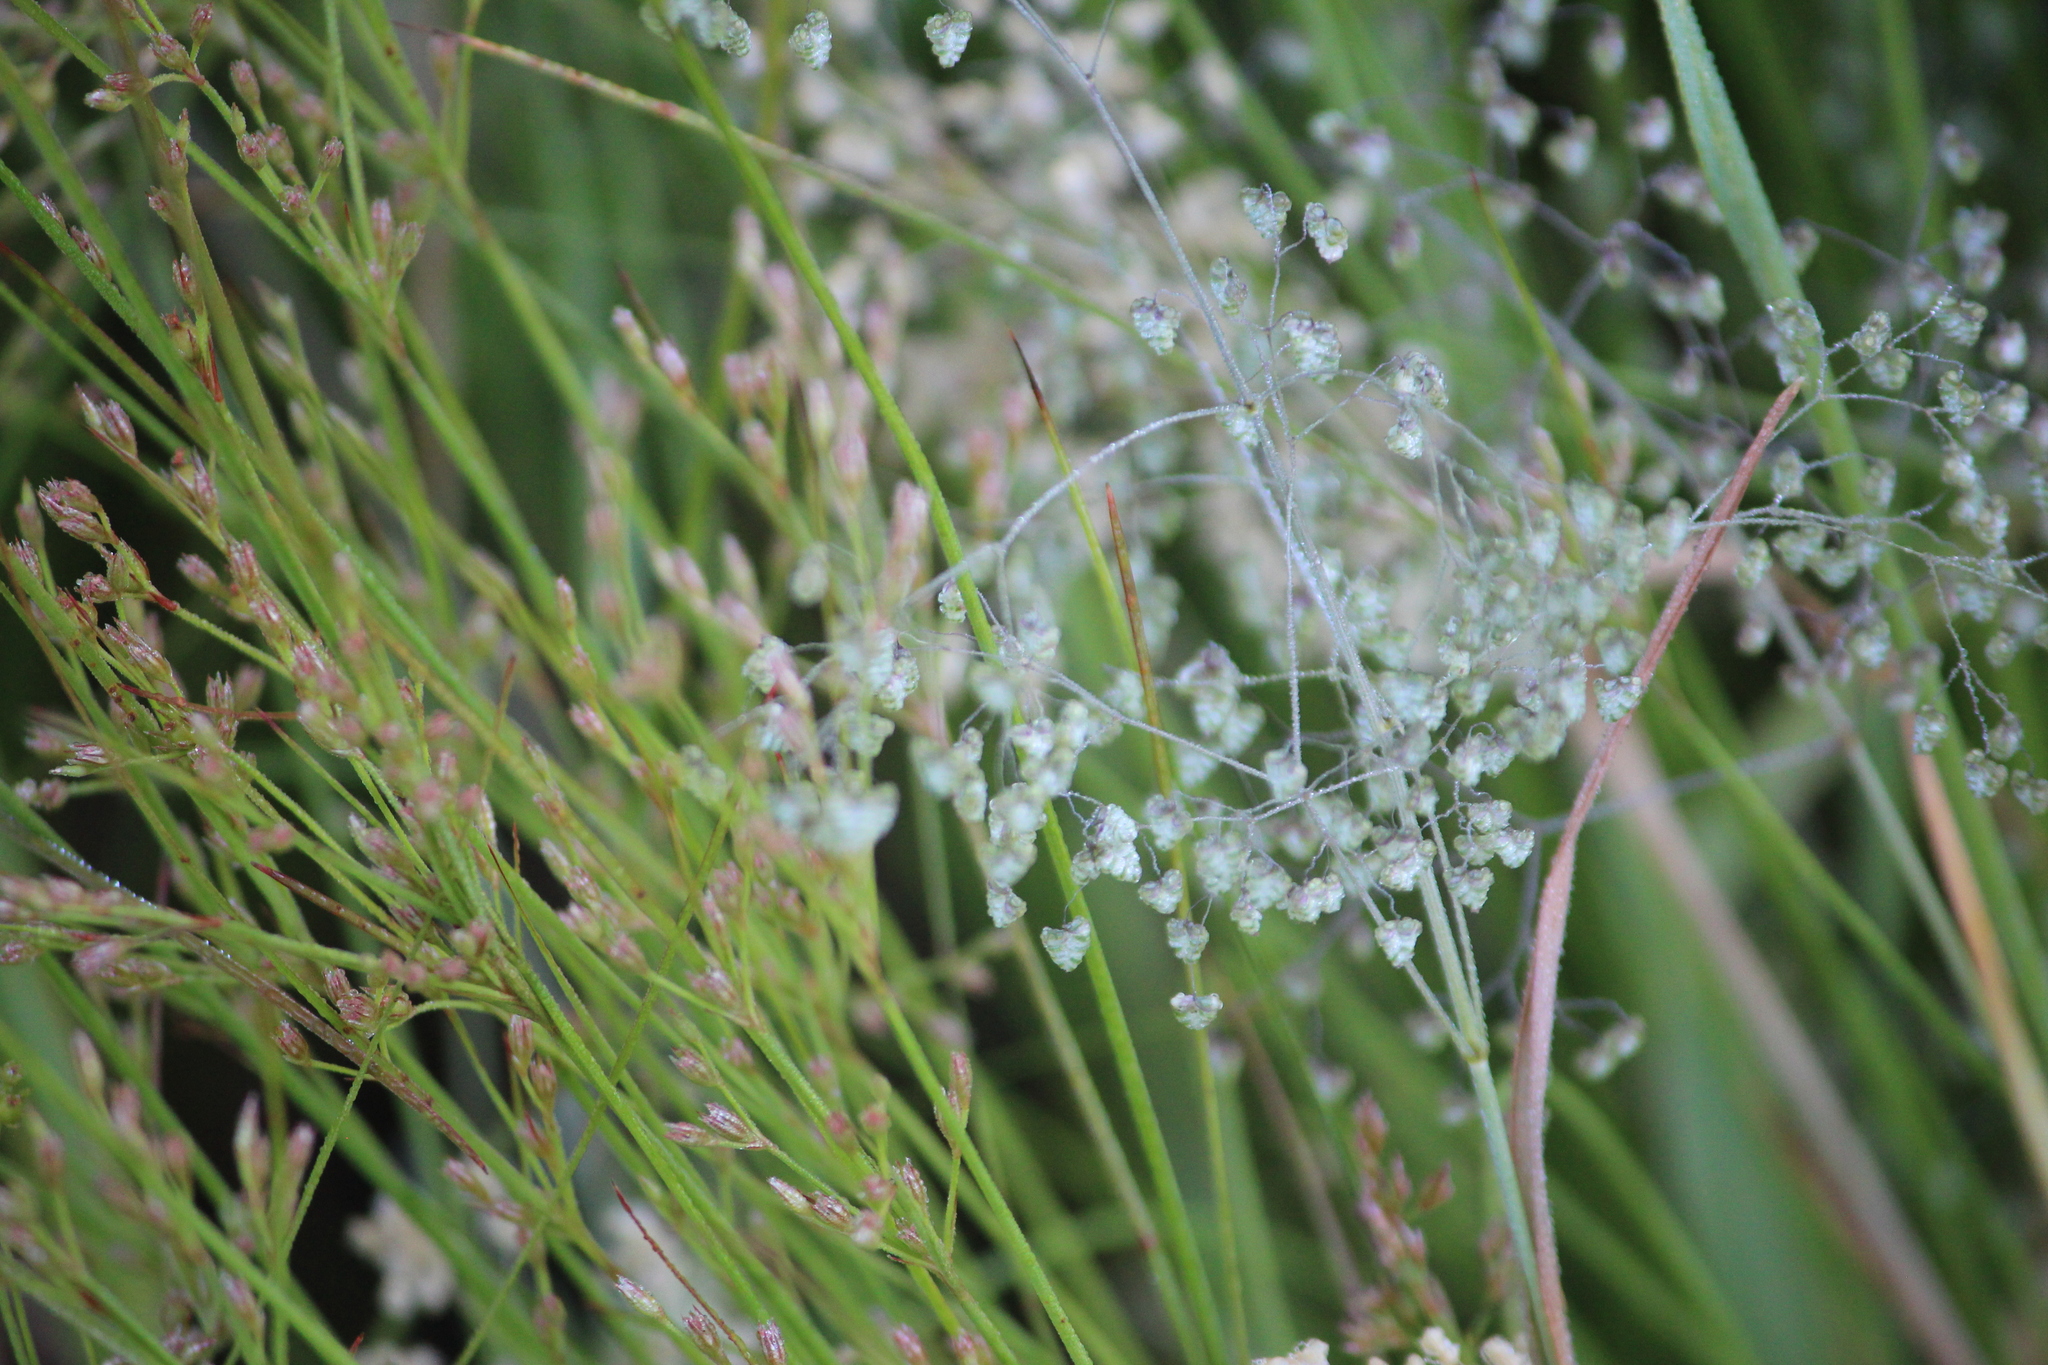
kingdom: Plantae
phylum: Tracheophyta
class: Liliopsida
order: Poales
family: Poaceae
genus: Briza
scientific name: Briza minor
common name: Lesser quaking-grass
